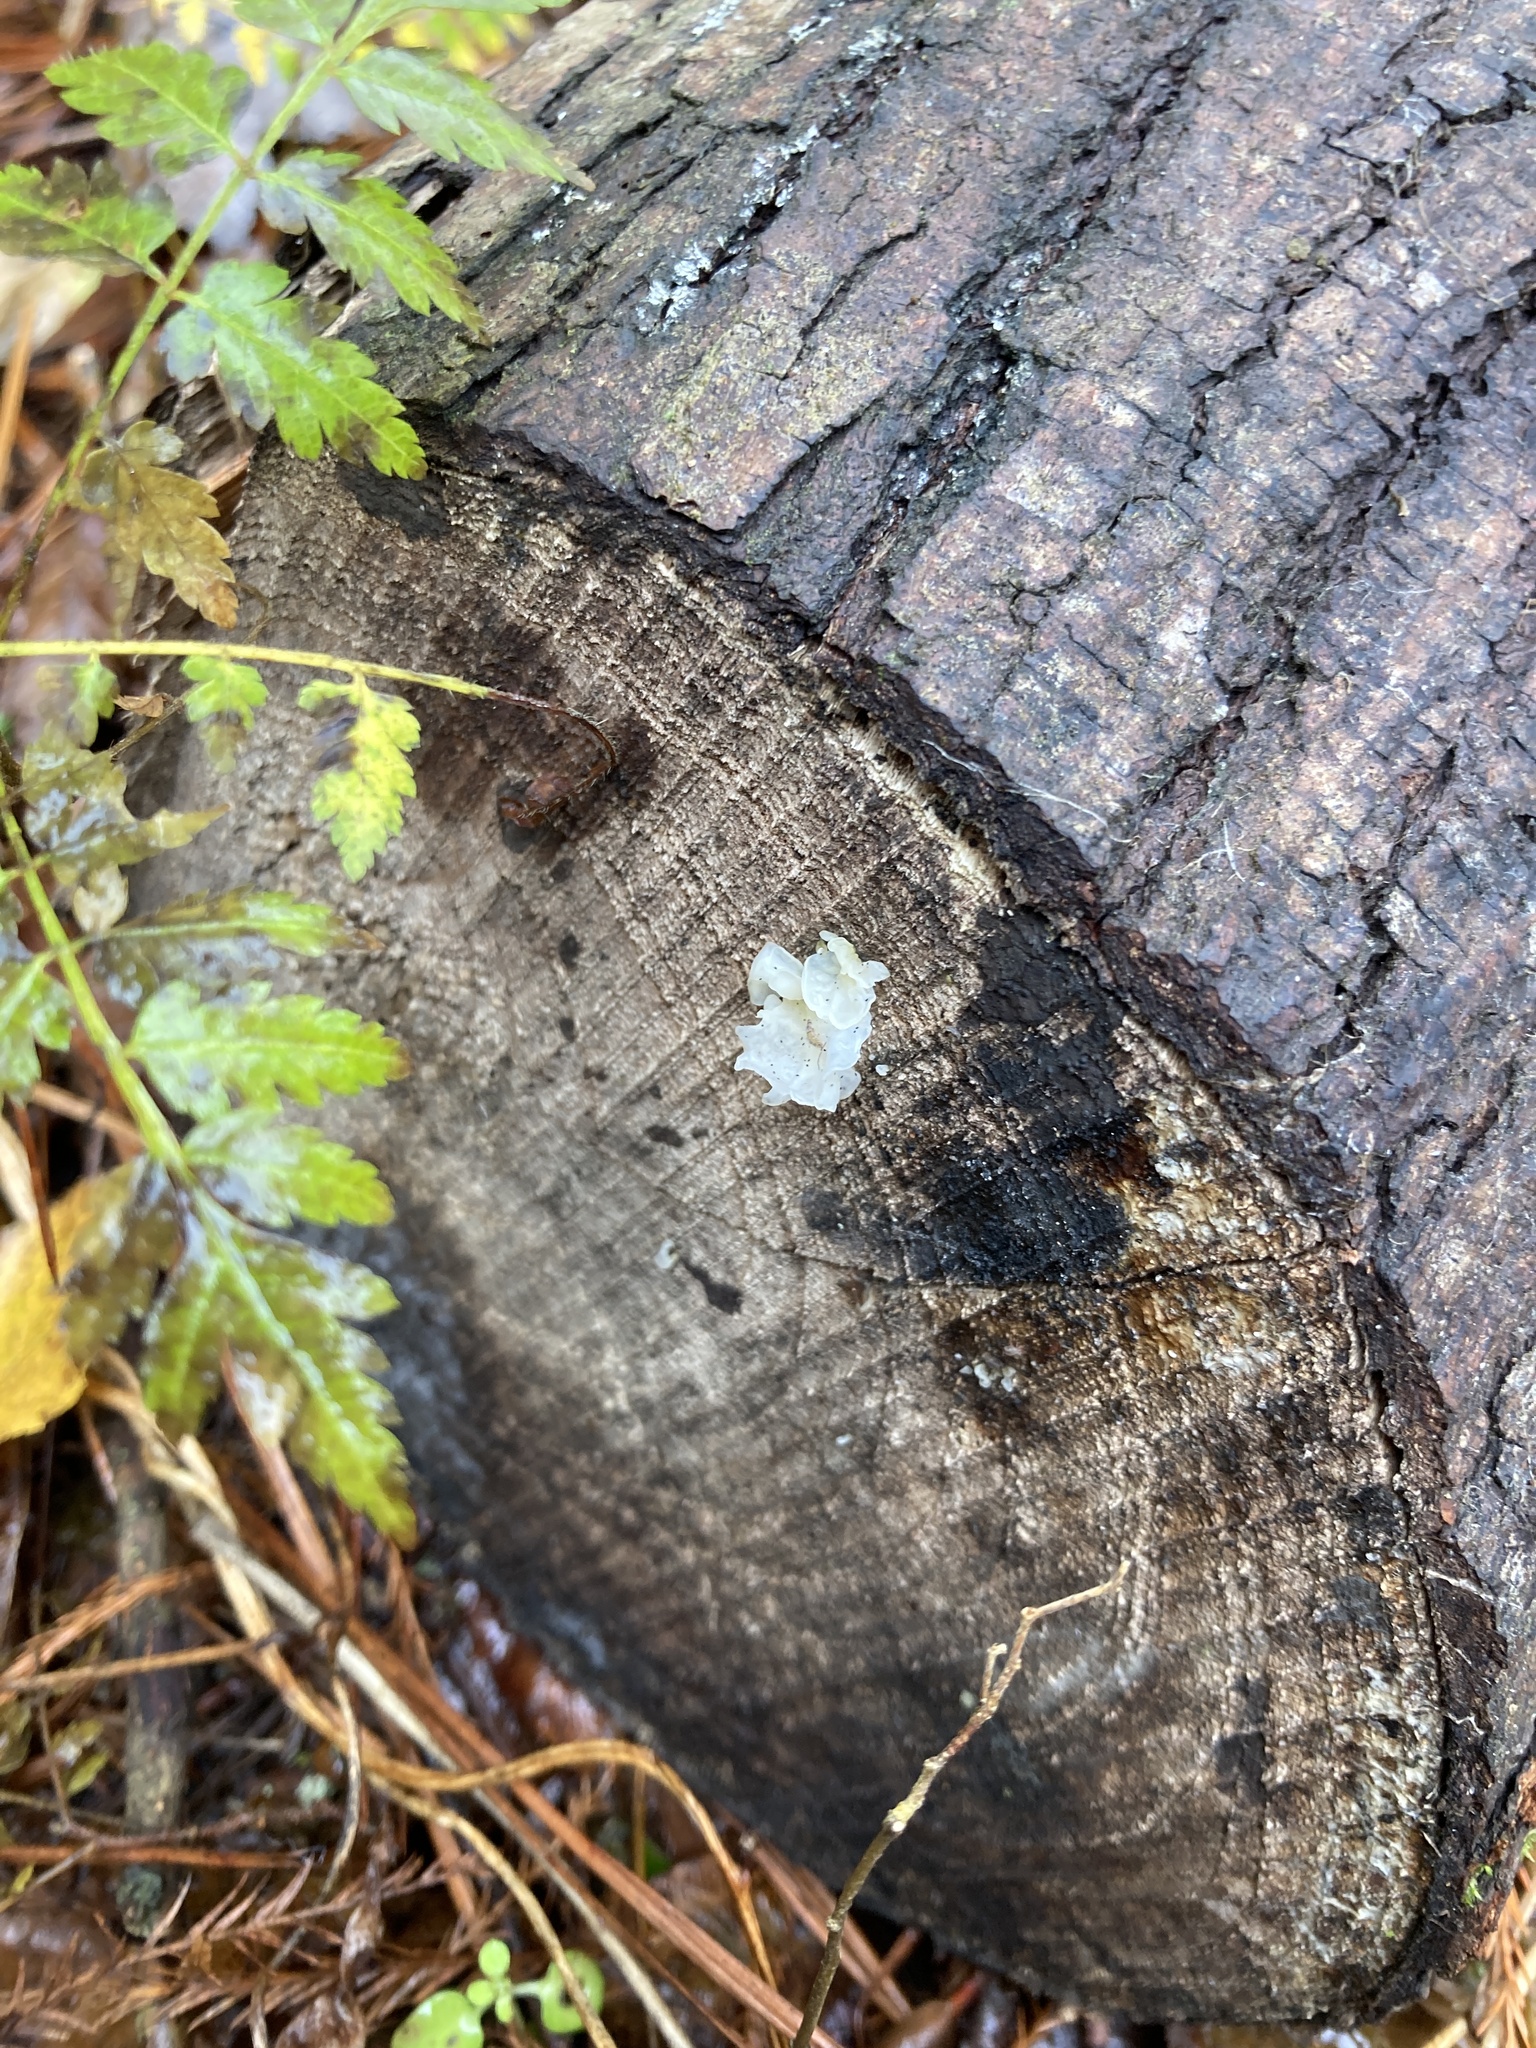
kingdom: Fungi
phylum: Basidiomycota
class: Tremellomycetes
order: Tremellales
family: Tremellaceae
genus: Tremella
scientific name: Tremella fuciformis
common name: Snow fungus
